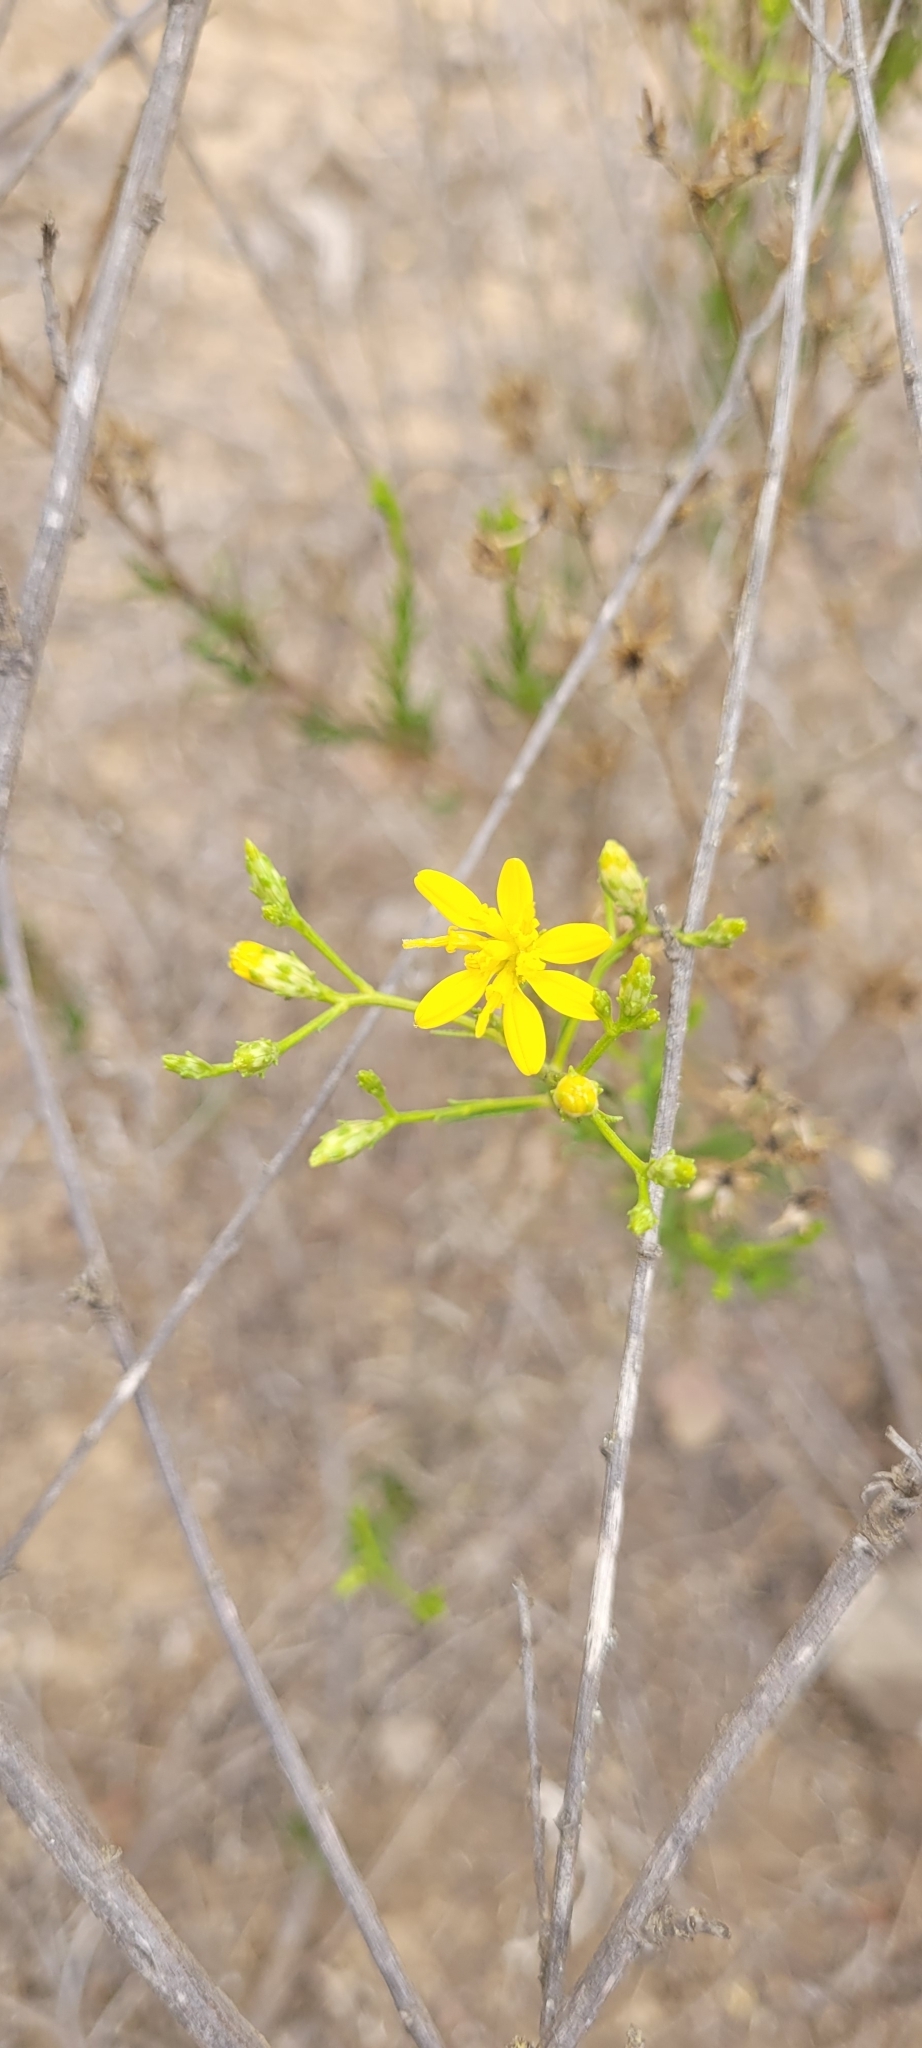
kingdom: Plantae
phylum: Tracheophyta
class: Magnoliopsida
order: Asterales
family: Asteraceae
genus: Gutierrezia
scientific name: Gutierrezia resinosa
